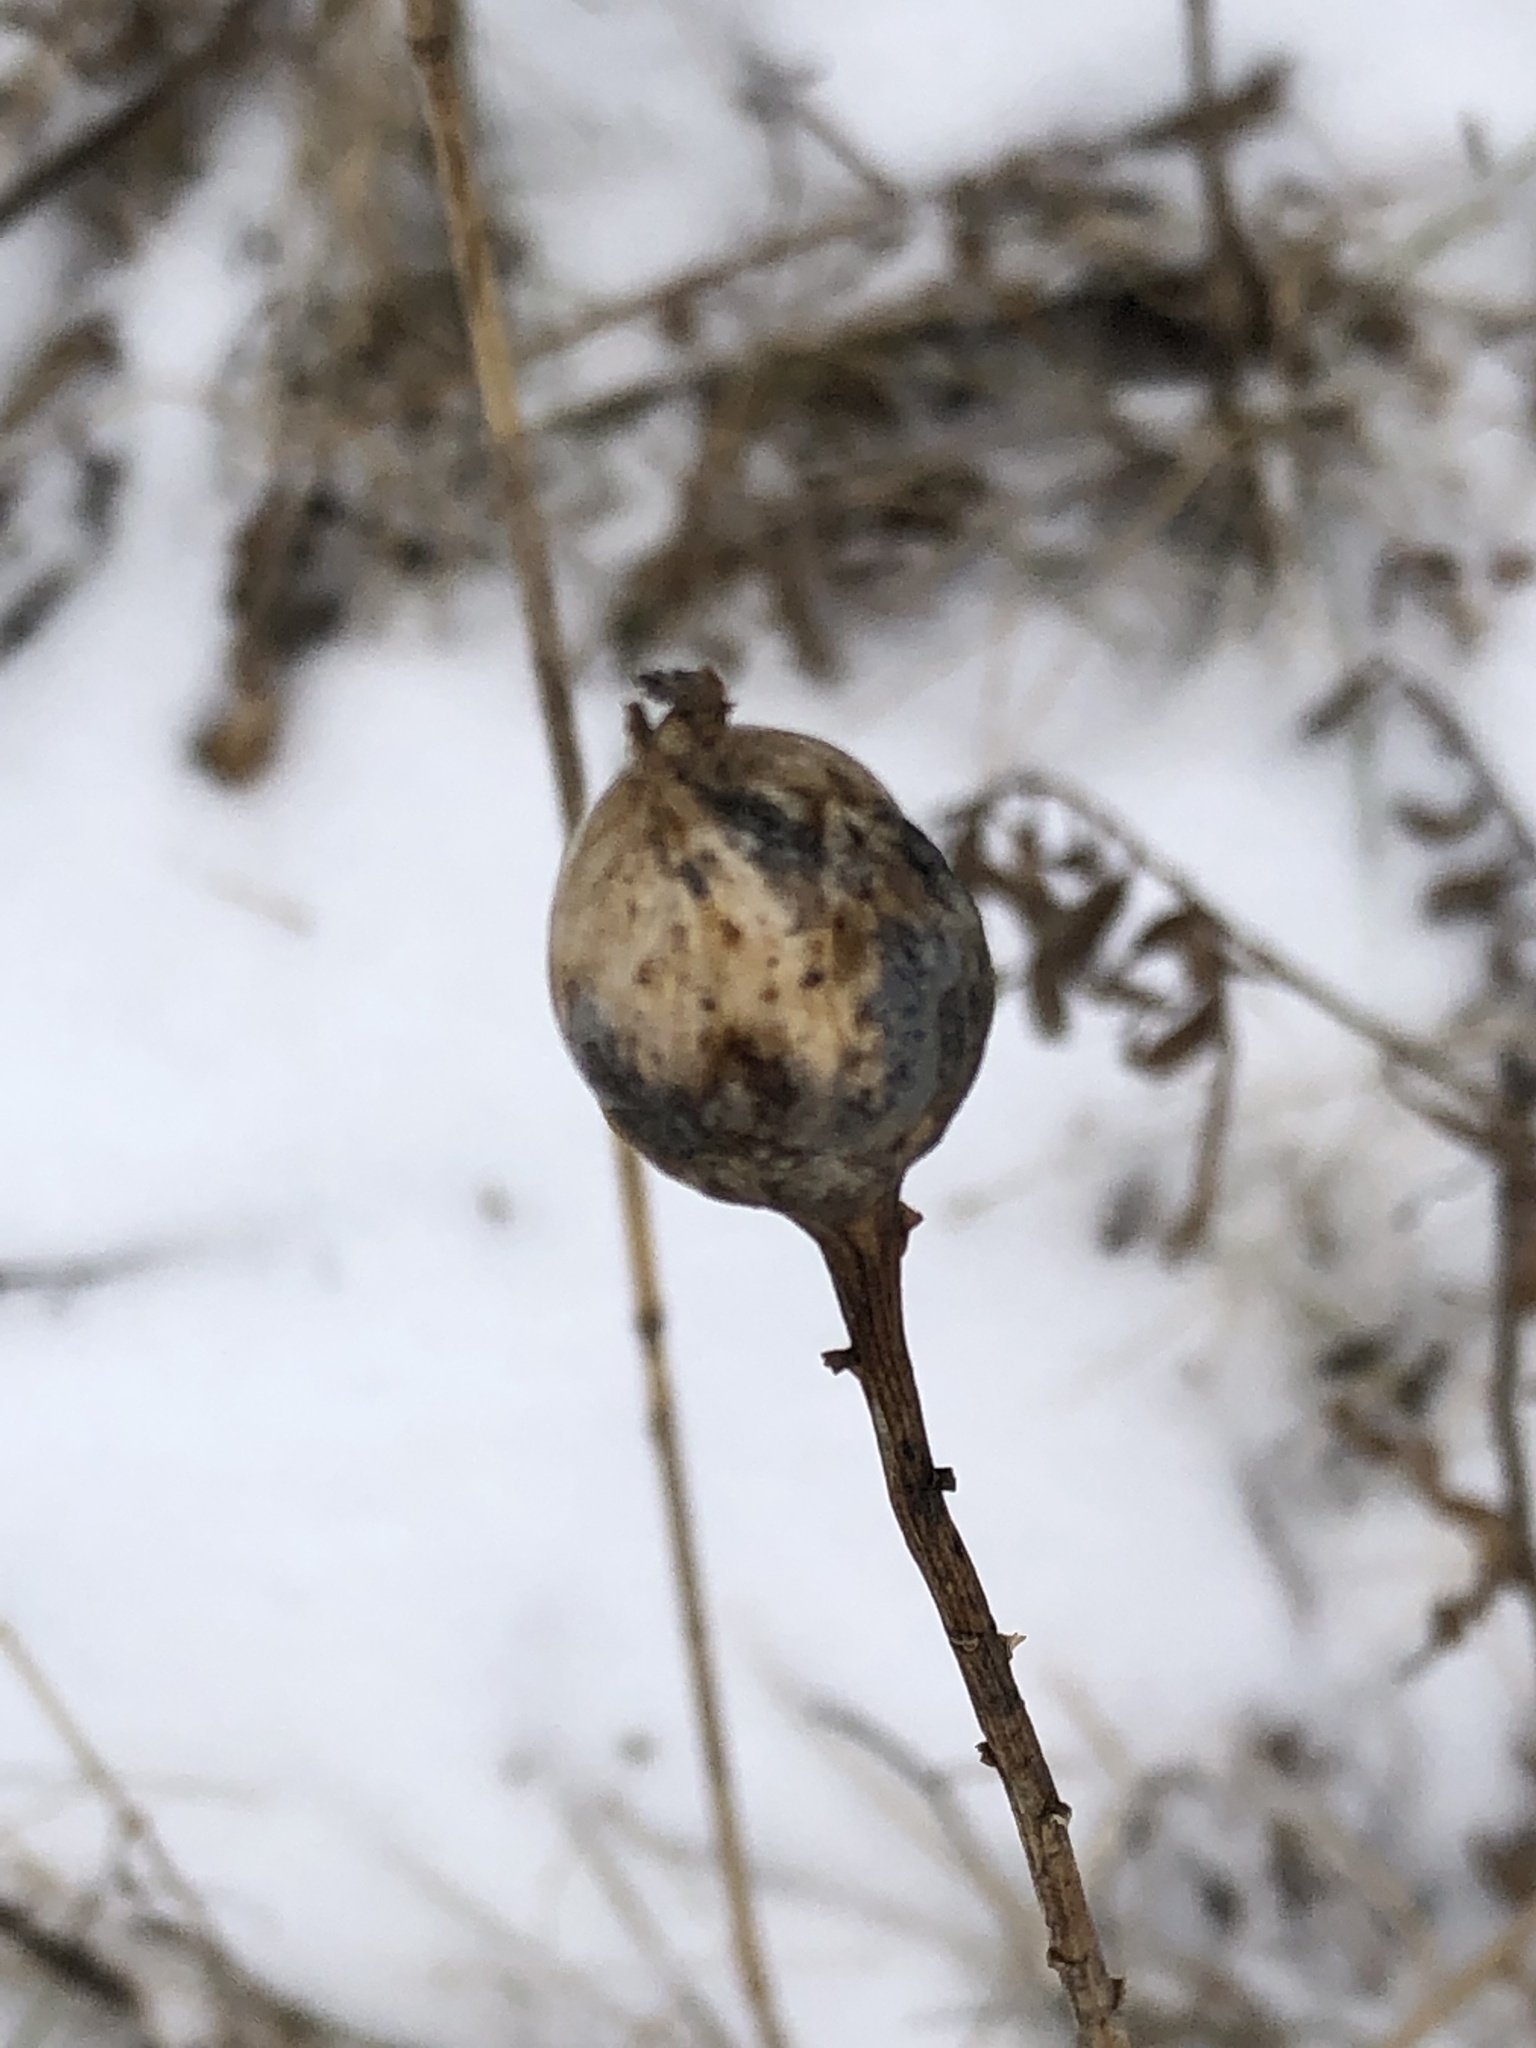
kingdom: Animalia
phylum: Arthropoda
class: Insecta
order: Diptera
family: Tephritidae
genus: Eurosta
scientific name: Eurosta solidaginis
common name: Goldenrod gall fly
